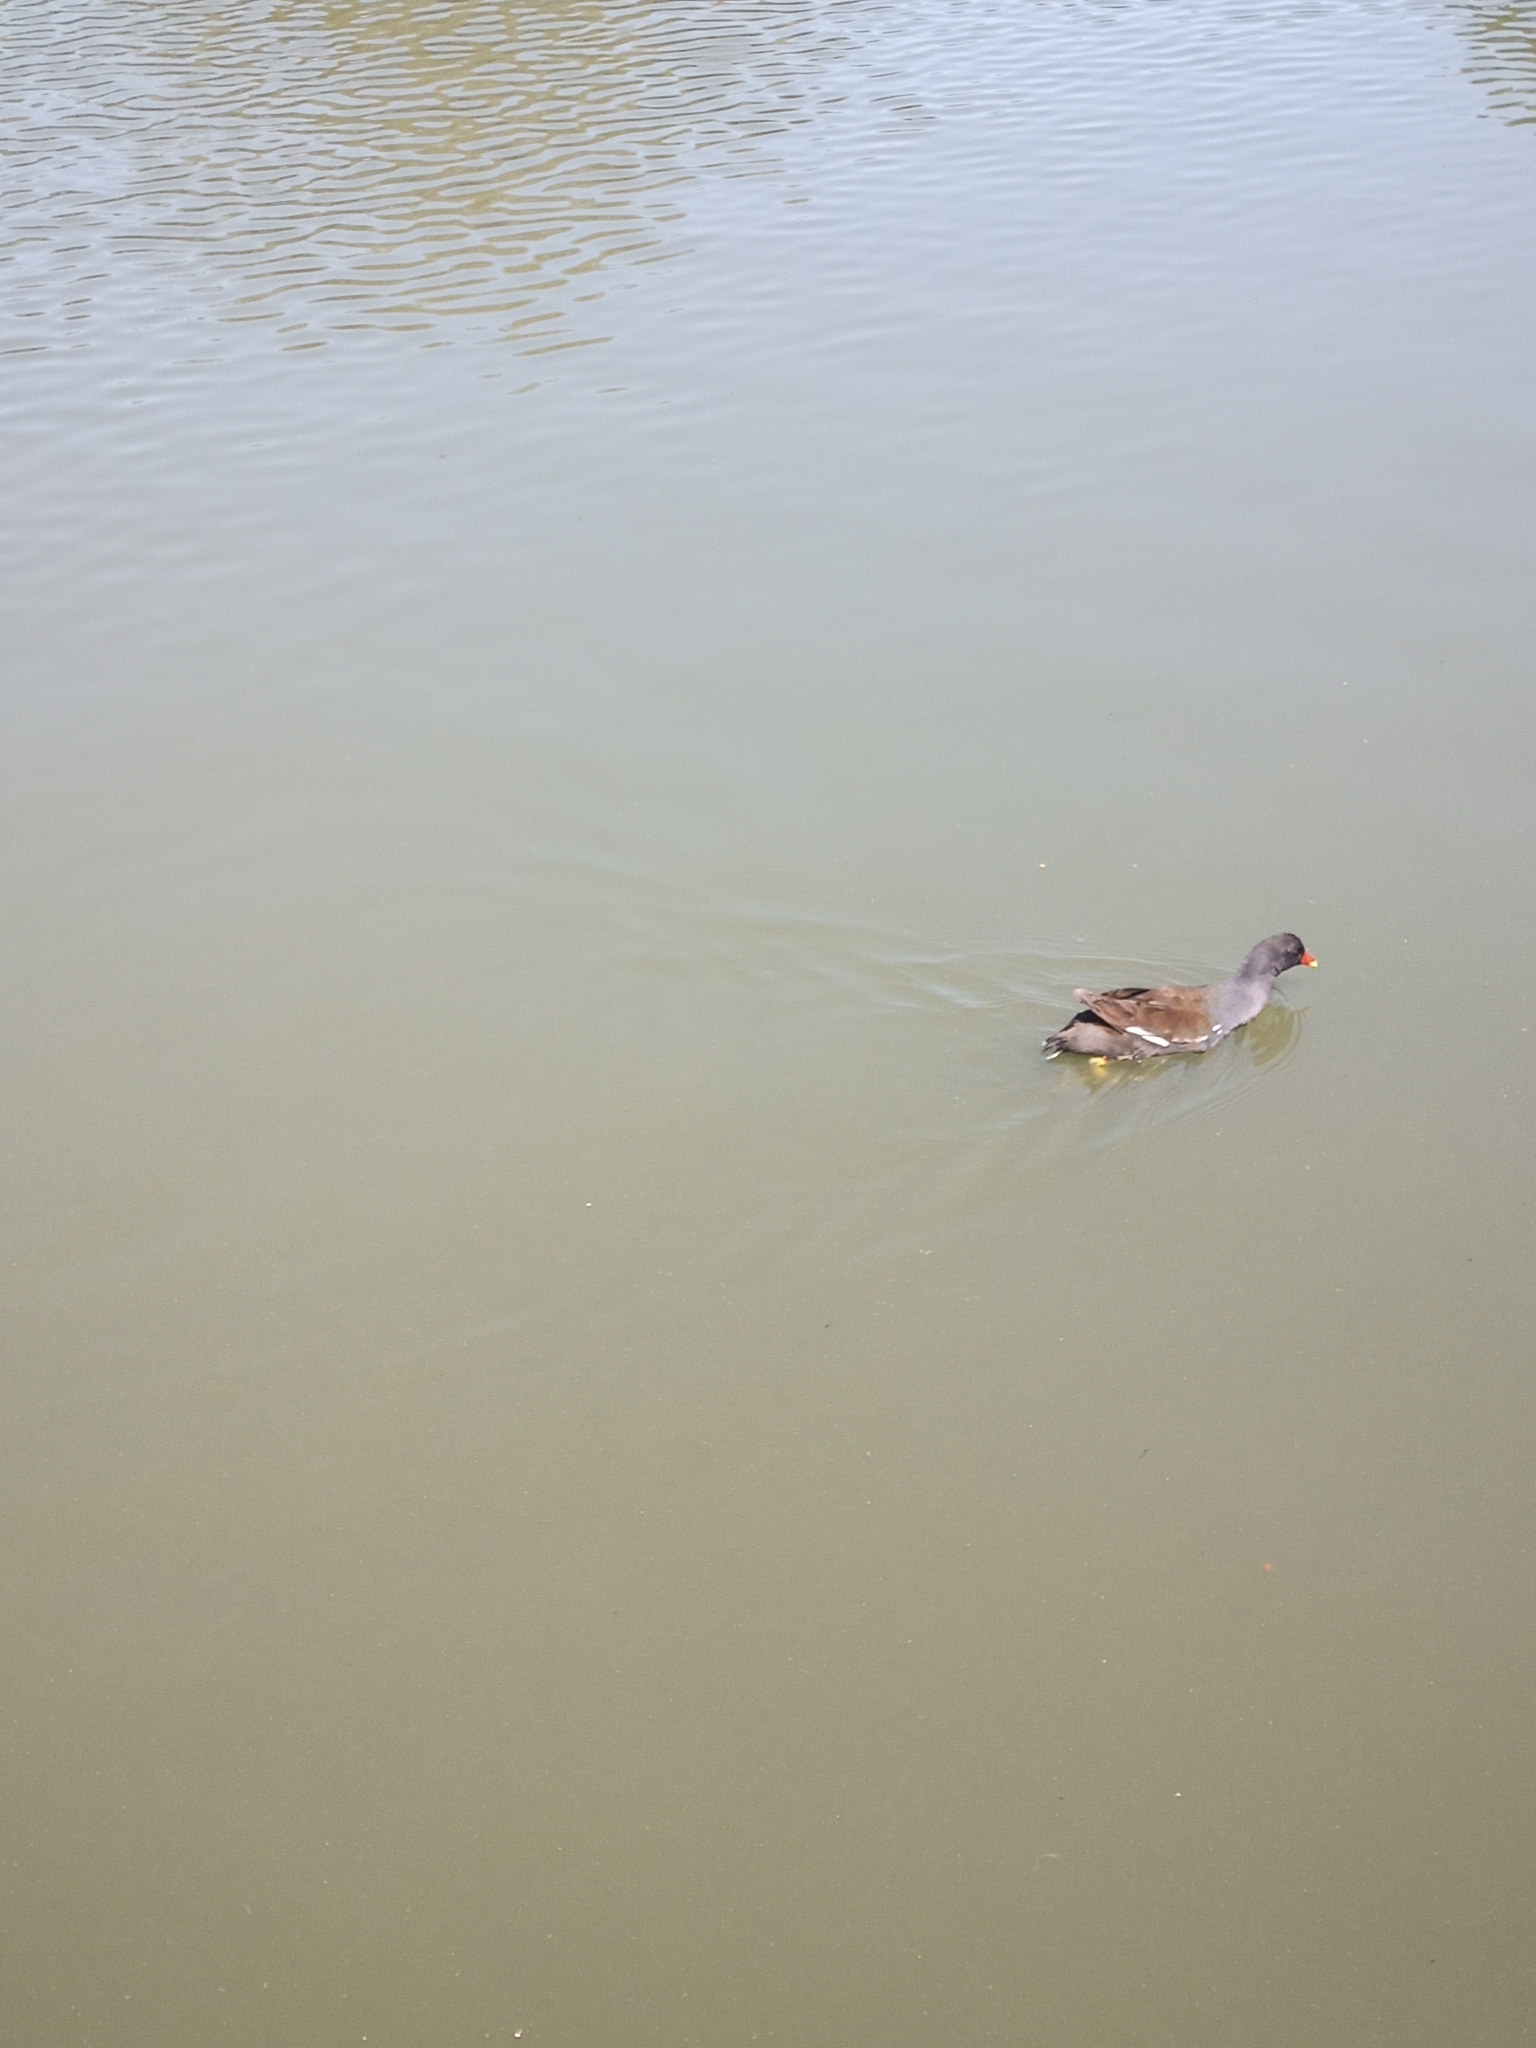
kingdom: Animalia
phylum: Chordata
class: Aves
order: Gruiformes
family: Rallidae
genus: Gallinula
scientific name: Gallinula chloropus
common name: Common moorhen
